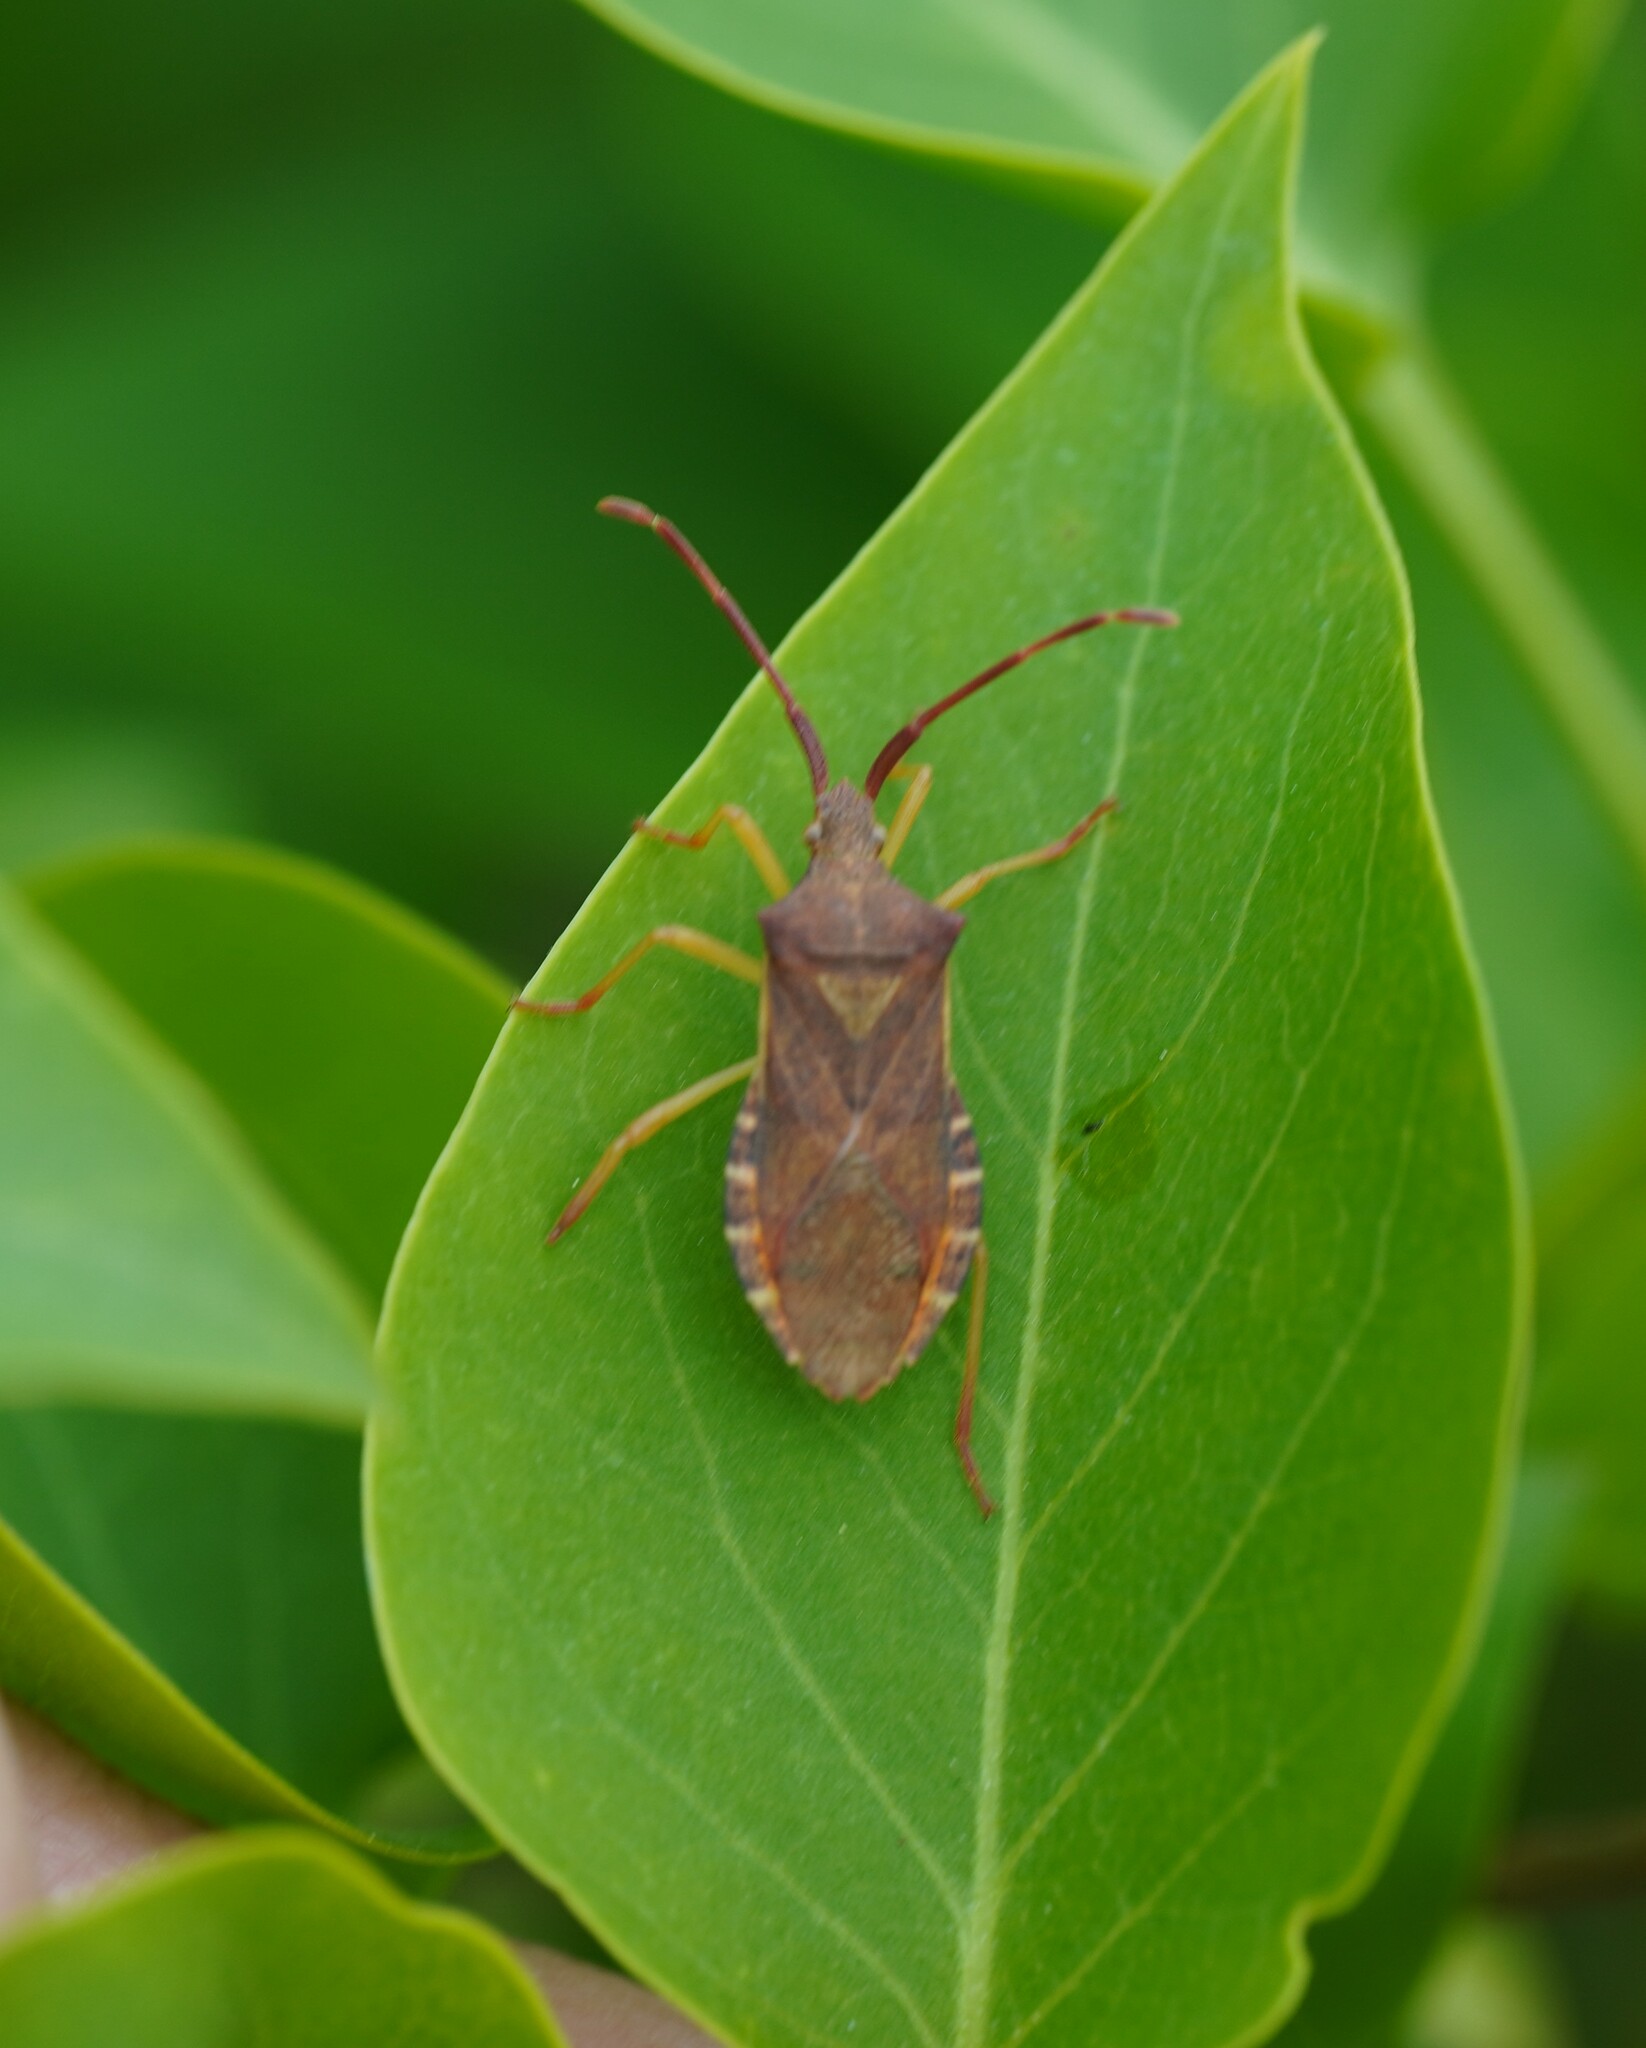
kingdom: Animalia
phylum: Arthropoda
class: Insecta
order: Hemiptera
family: Coreidae
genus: Gonocerus
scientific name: Gonocerus acuteangulatus
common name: Box bug
